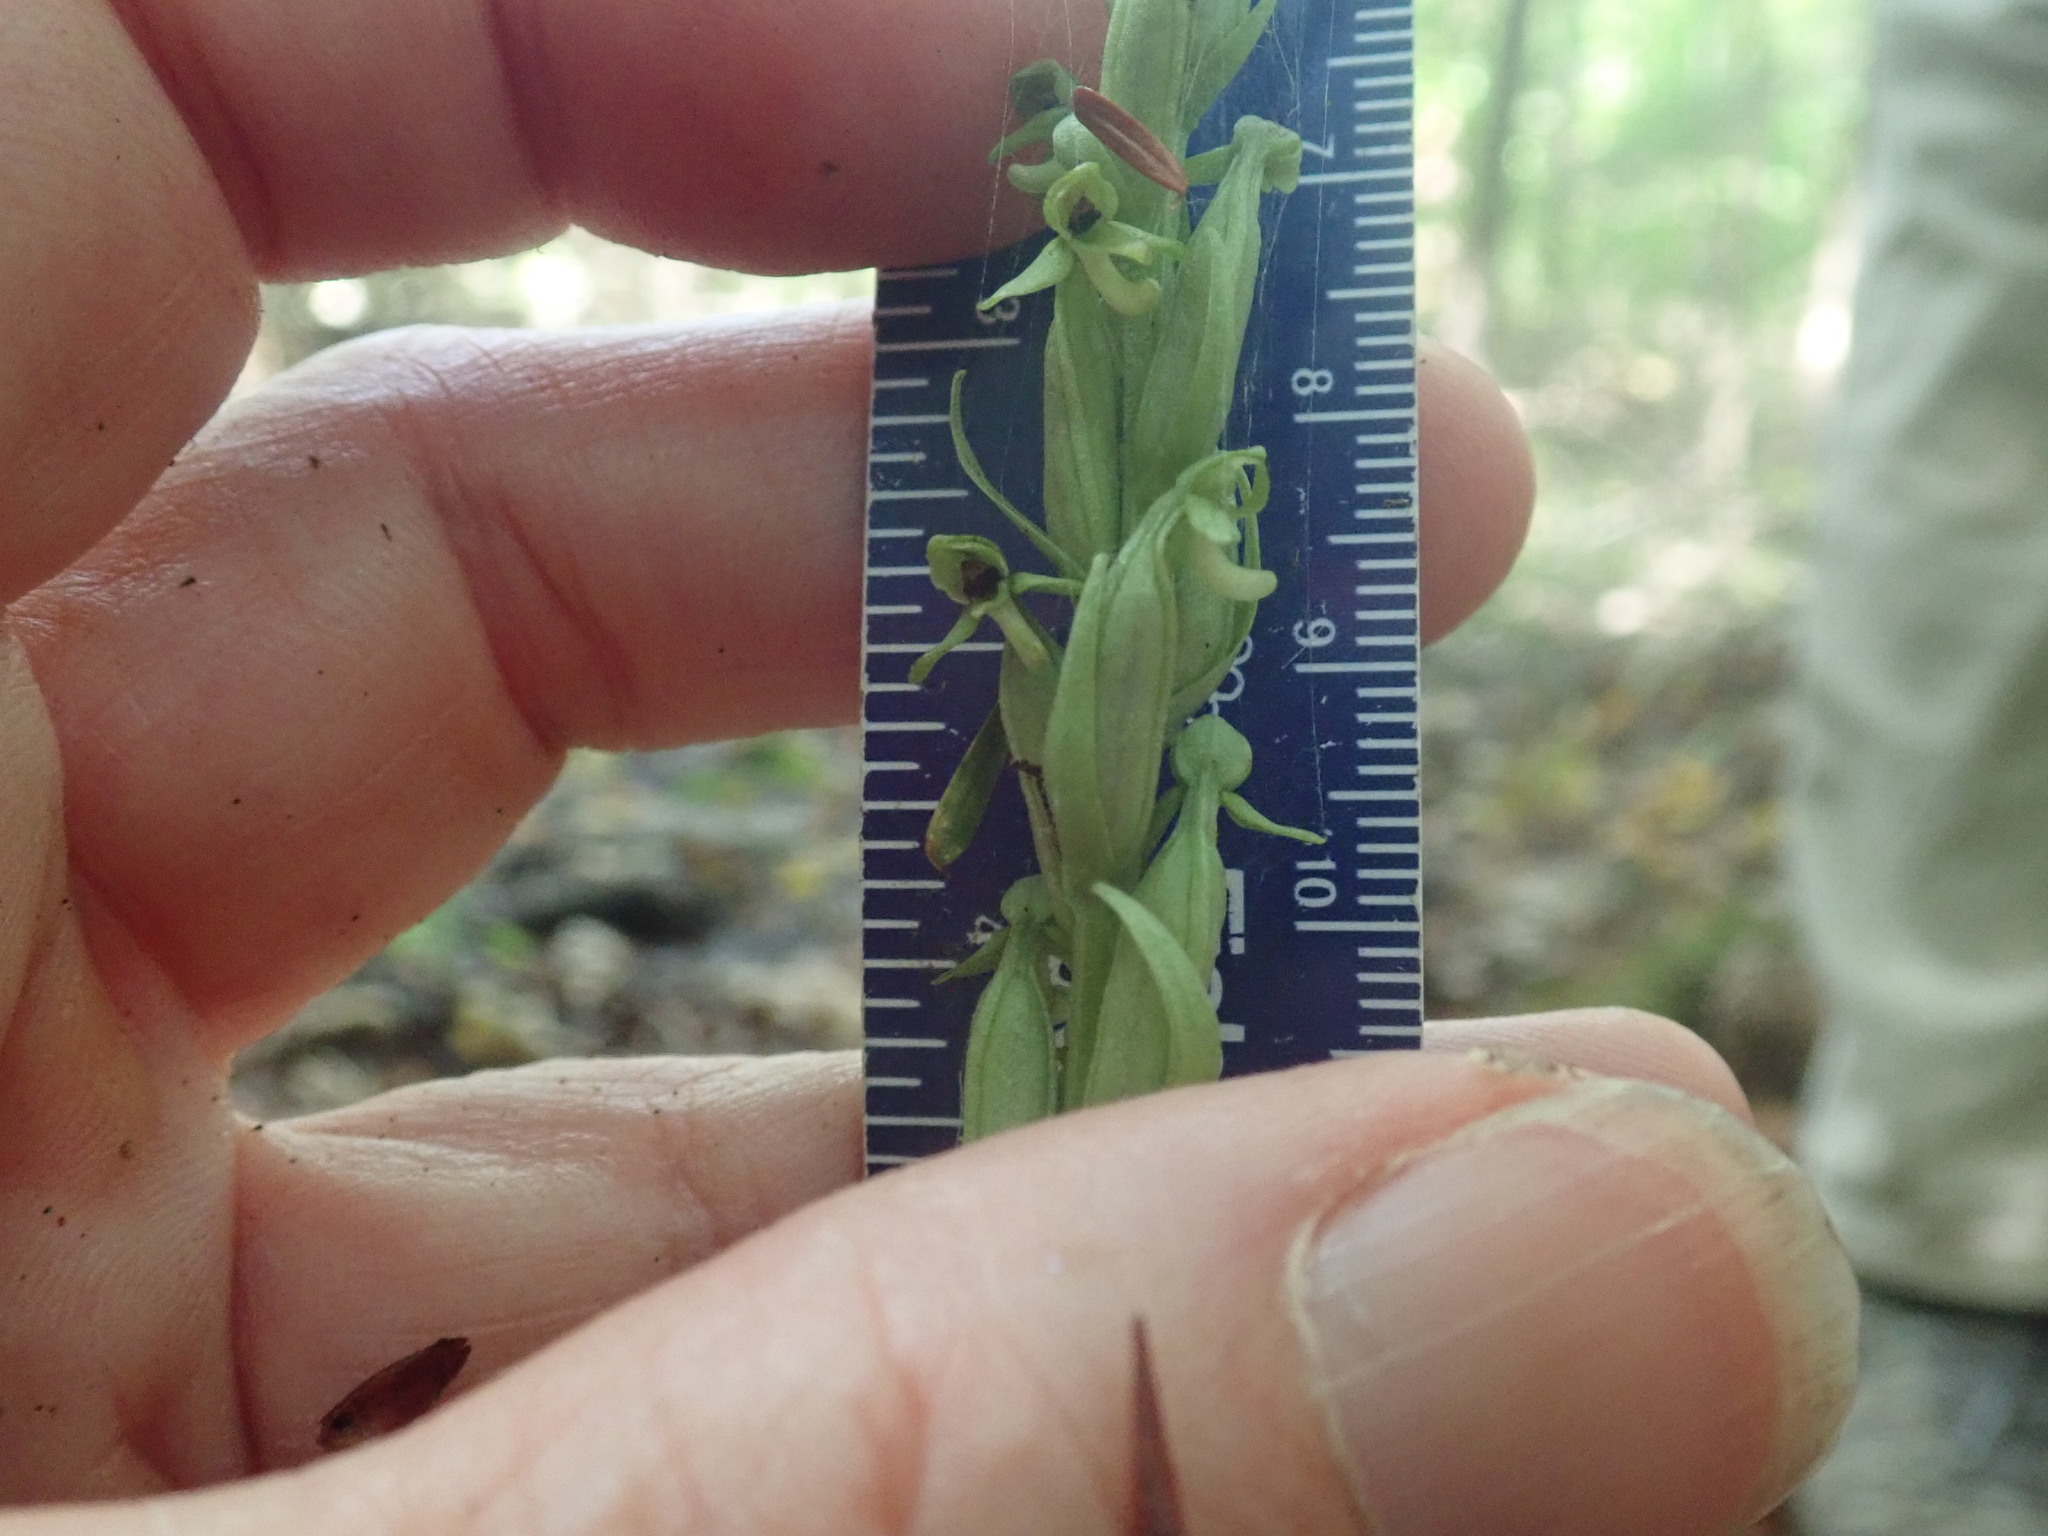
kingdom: Plantae
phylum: Tracheophyta
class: Liliopsida
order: Asparagales
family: Orchidaceae
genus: Platanthera
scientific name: Platanthera aquilonis
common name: Northern green orchid
